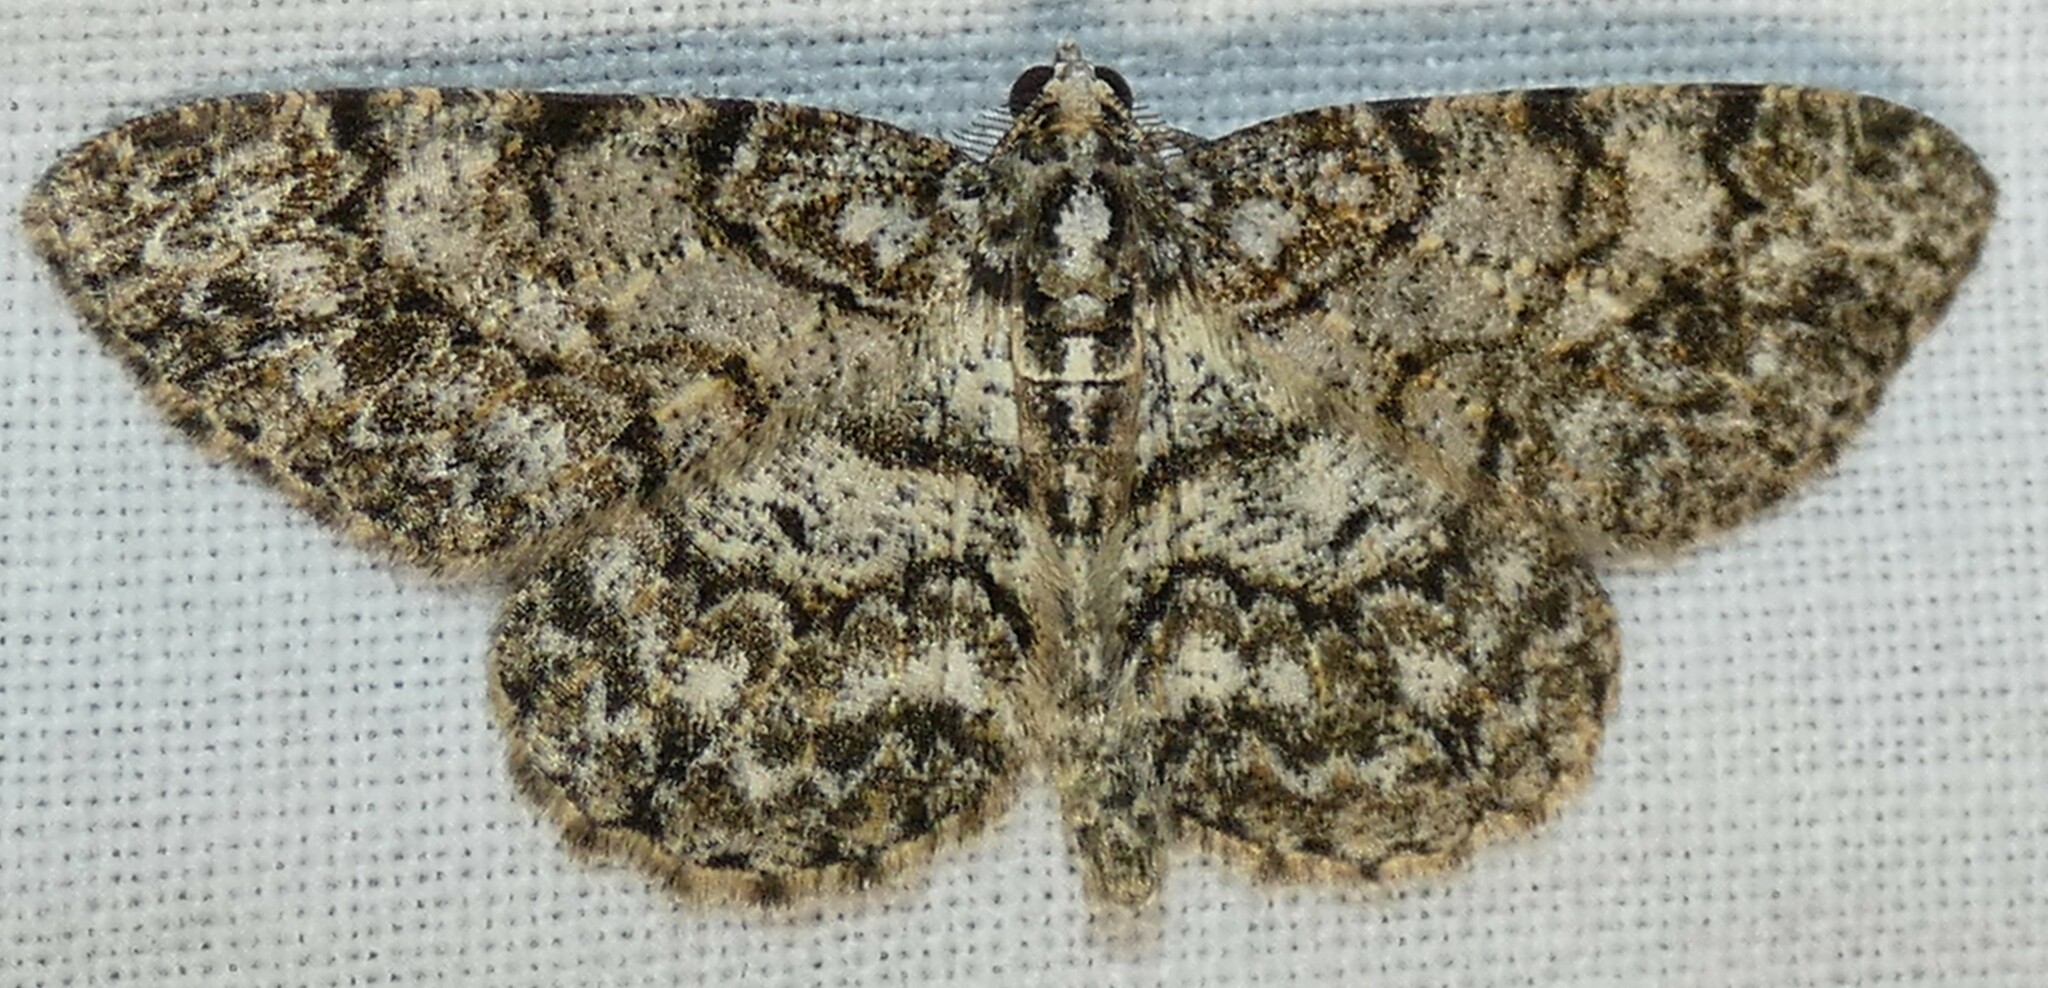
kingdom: Animalia
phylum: Arthropoda
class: Insecta
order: Lepidoptera
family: Geometridae
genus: Protoboarmia
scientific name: Protoboarmia porcelaria
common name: Porcelain gray
